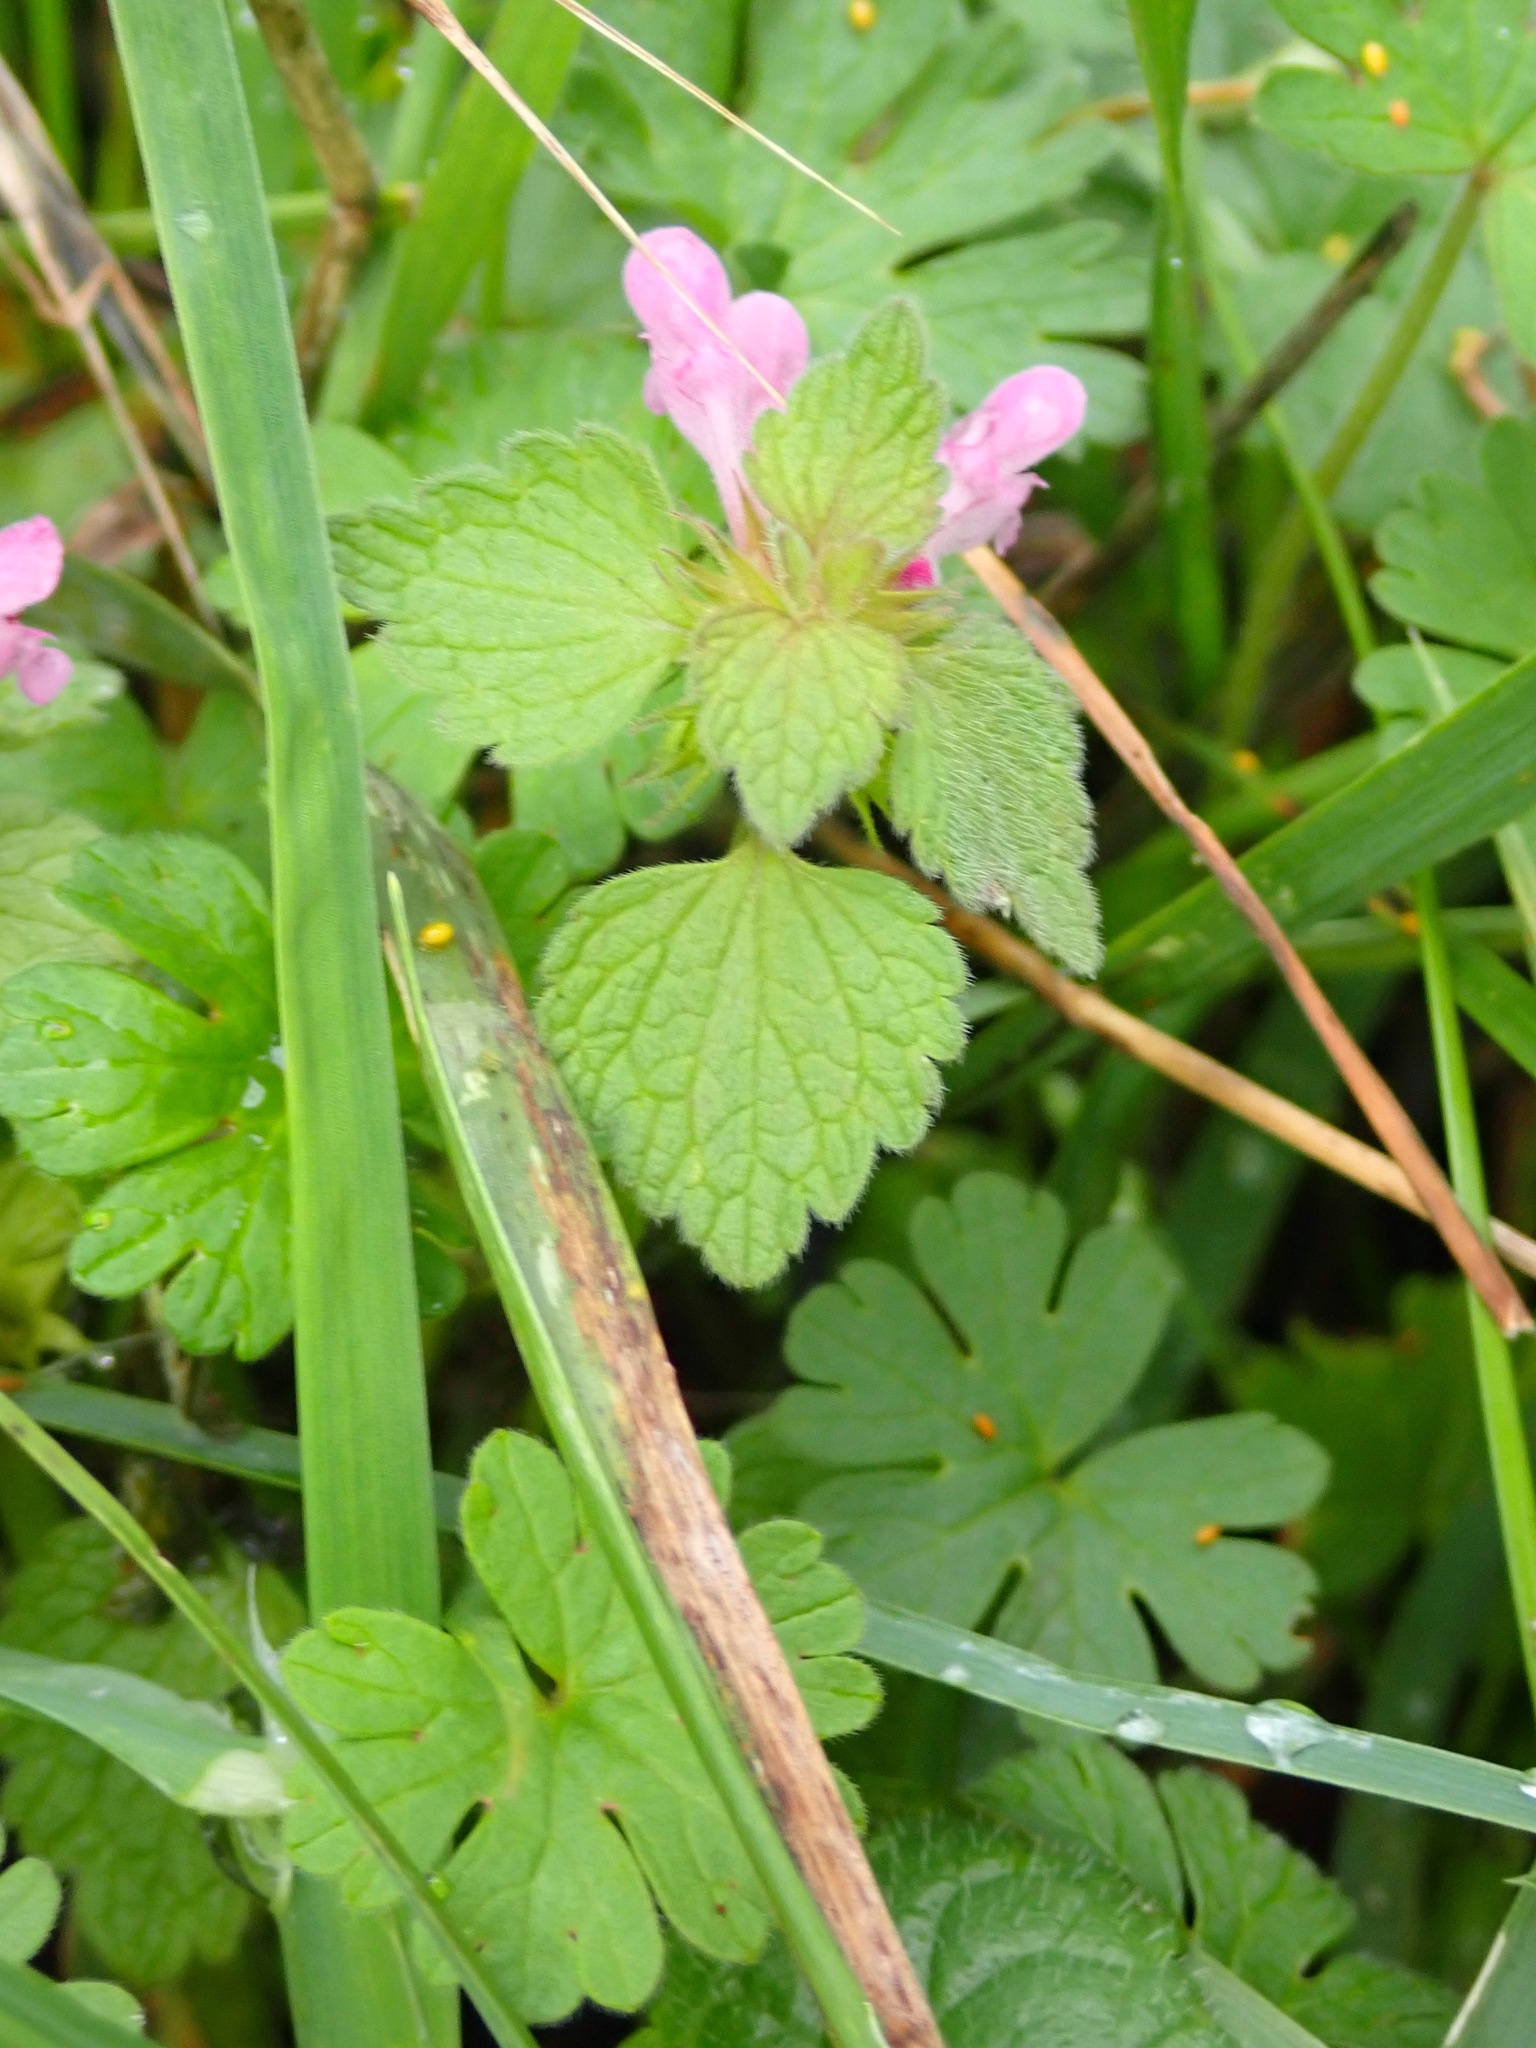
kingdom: Plantae
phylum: Tracheophyta
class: Magnoliopsida
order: Lamiales
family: Lamiaceae
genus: Lamium
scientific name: Lamium purpureum
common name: Red dead-nettle
